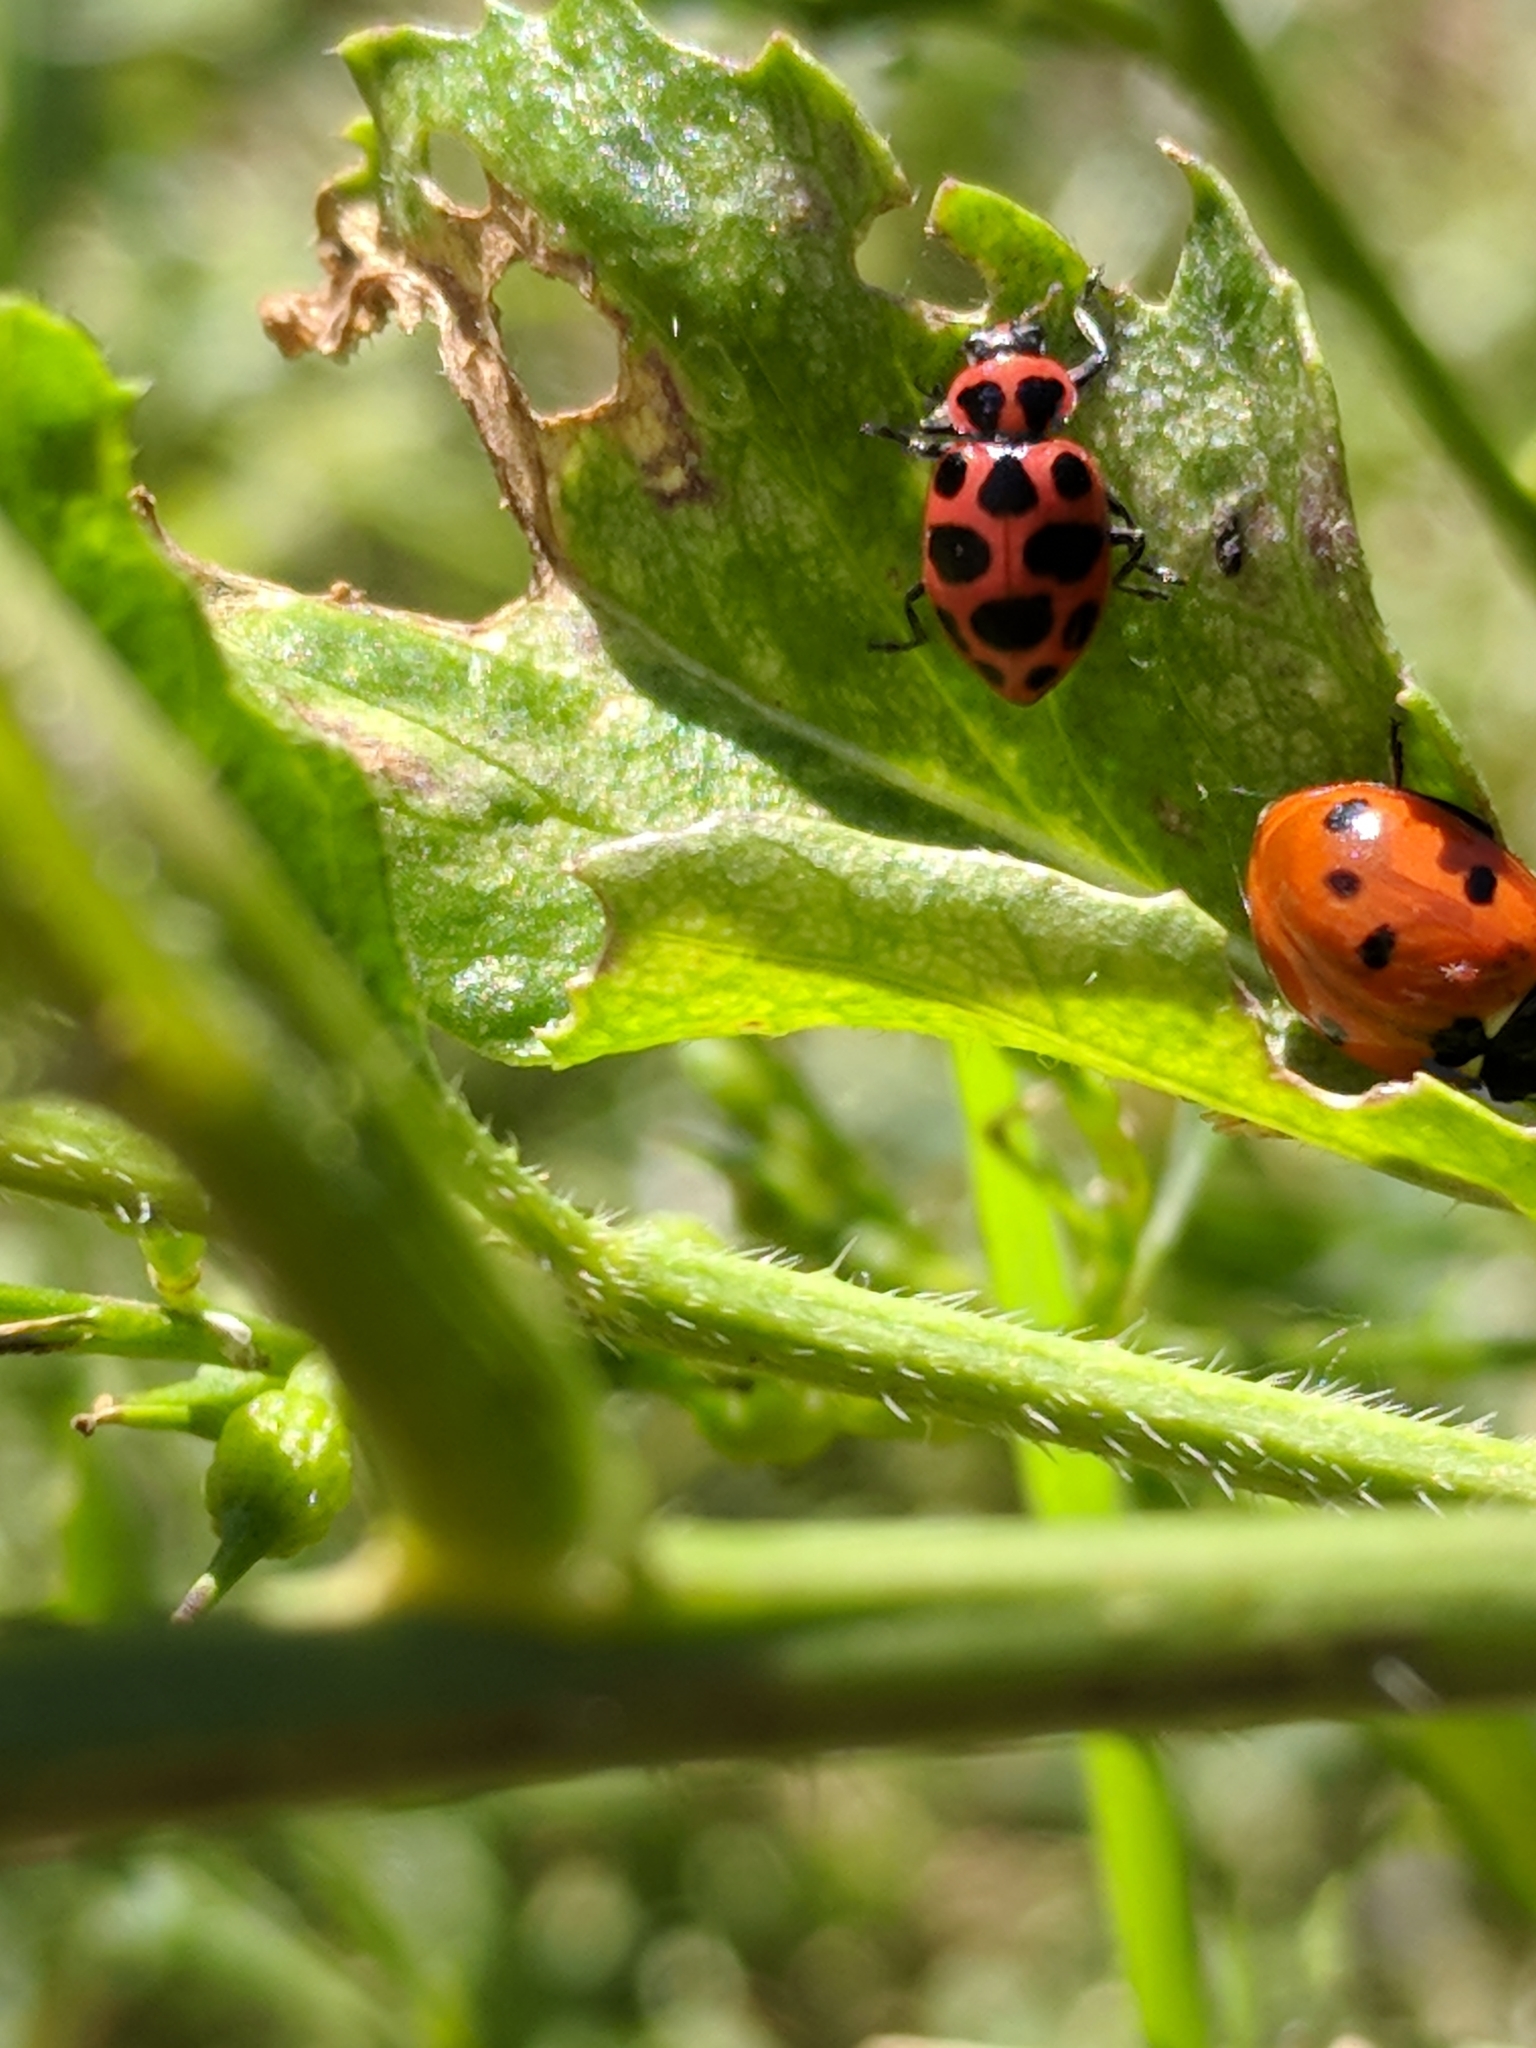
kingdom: Animalia
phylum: Arthropoda
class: Insecta
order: Coleoptera
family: Coccinellidae
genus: Coleomegilla
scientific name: Coleomegilla maculata
